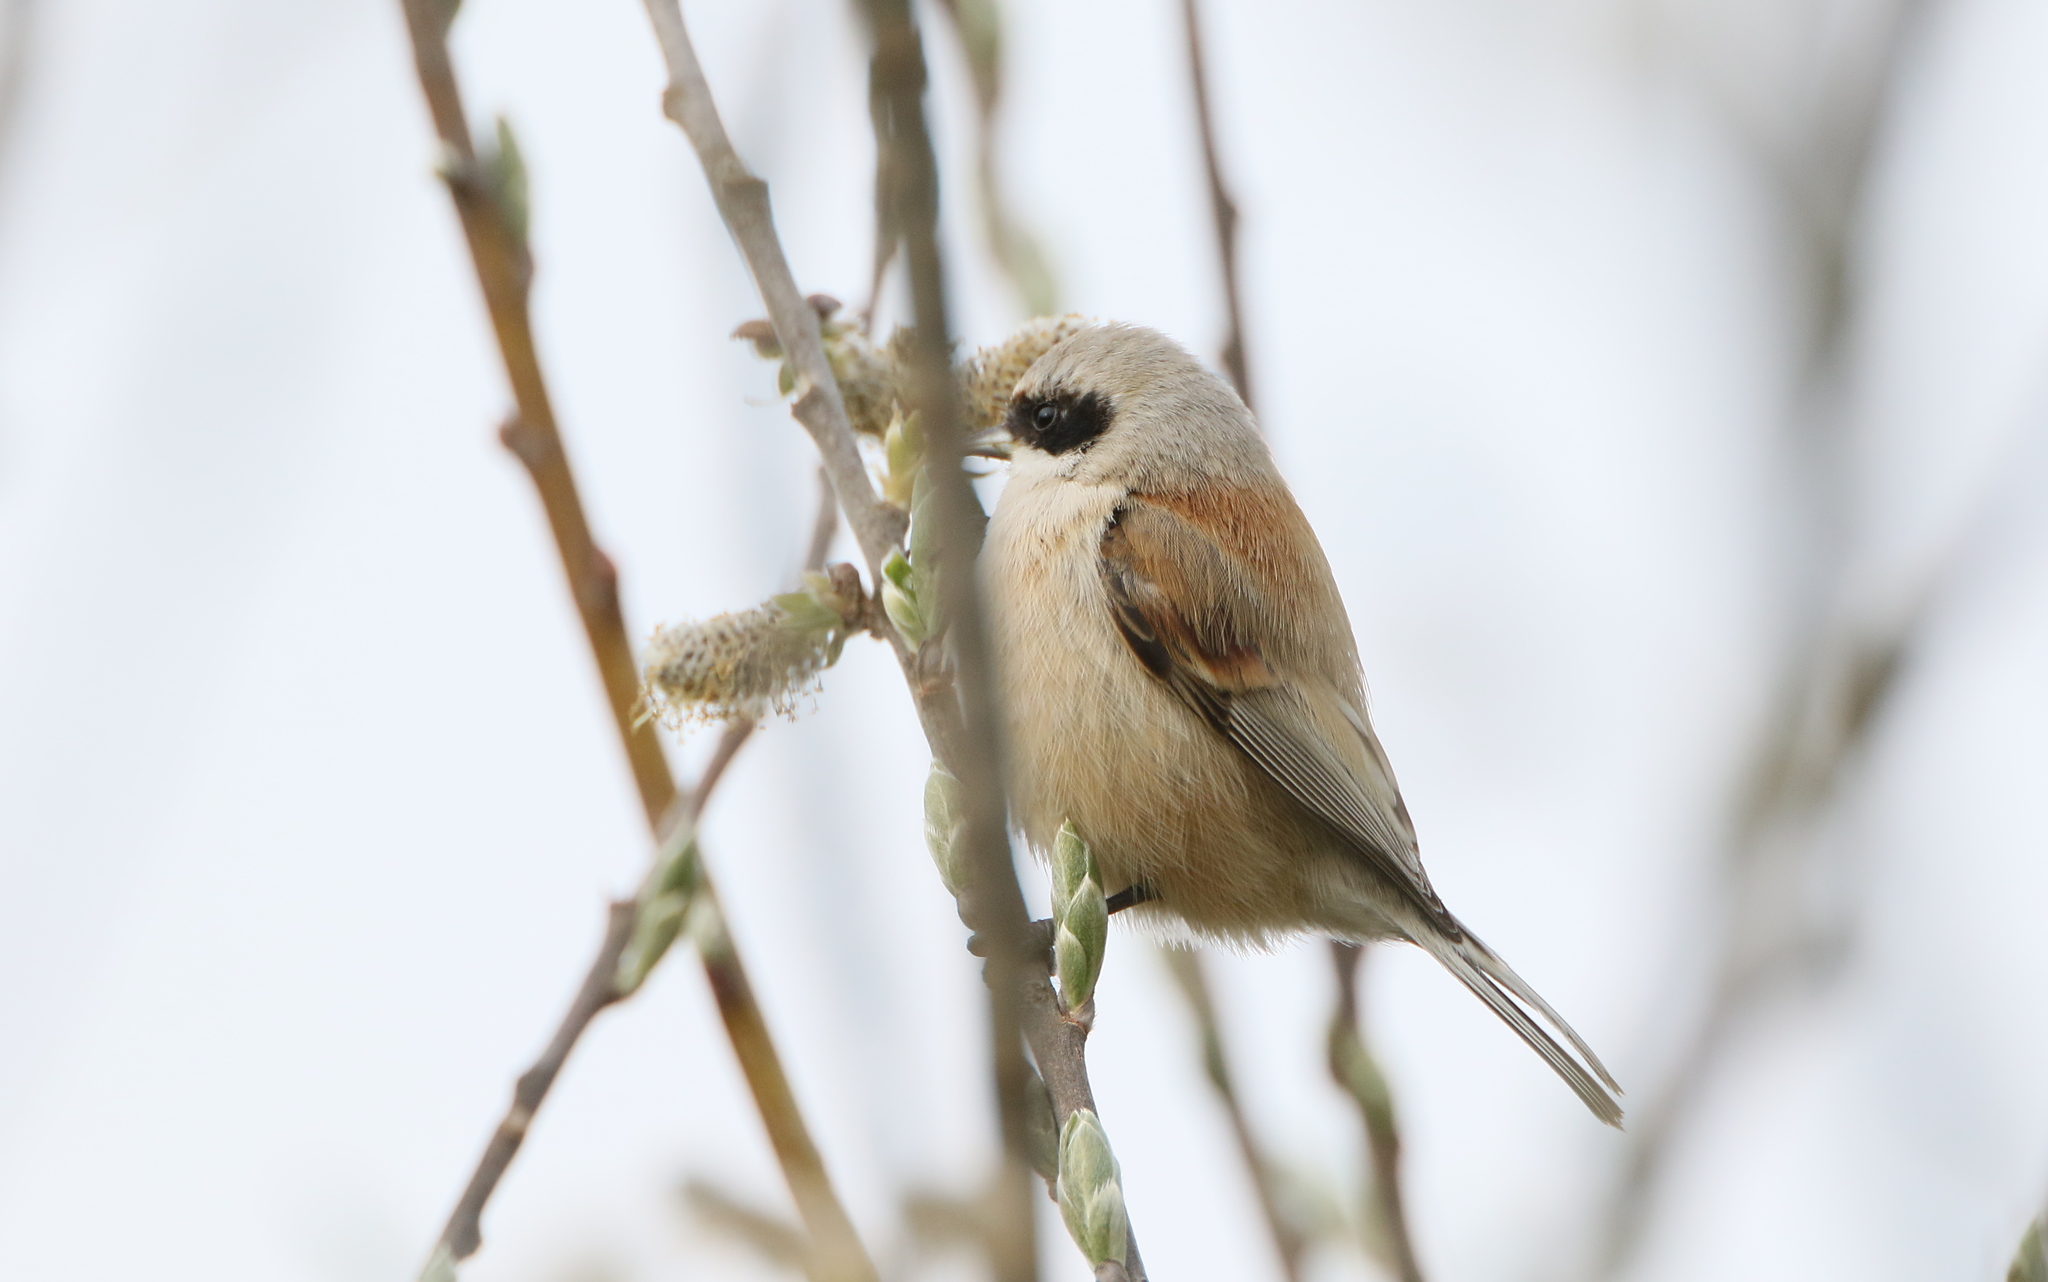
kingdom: Animalia
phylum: Chordata
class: Aves
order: Passeriformes
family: Remizidae
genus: Remiz
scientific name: Remiz pendulinus
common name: Eurasian penduline tit
